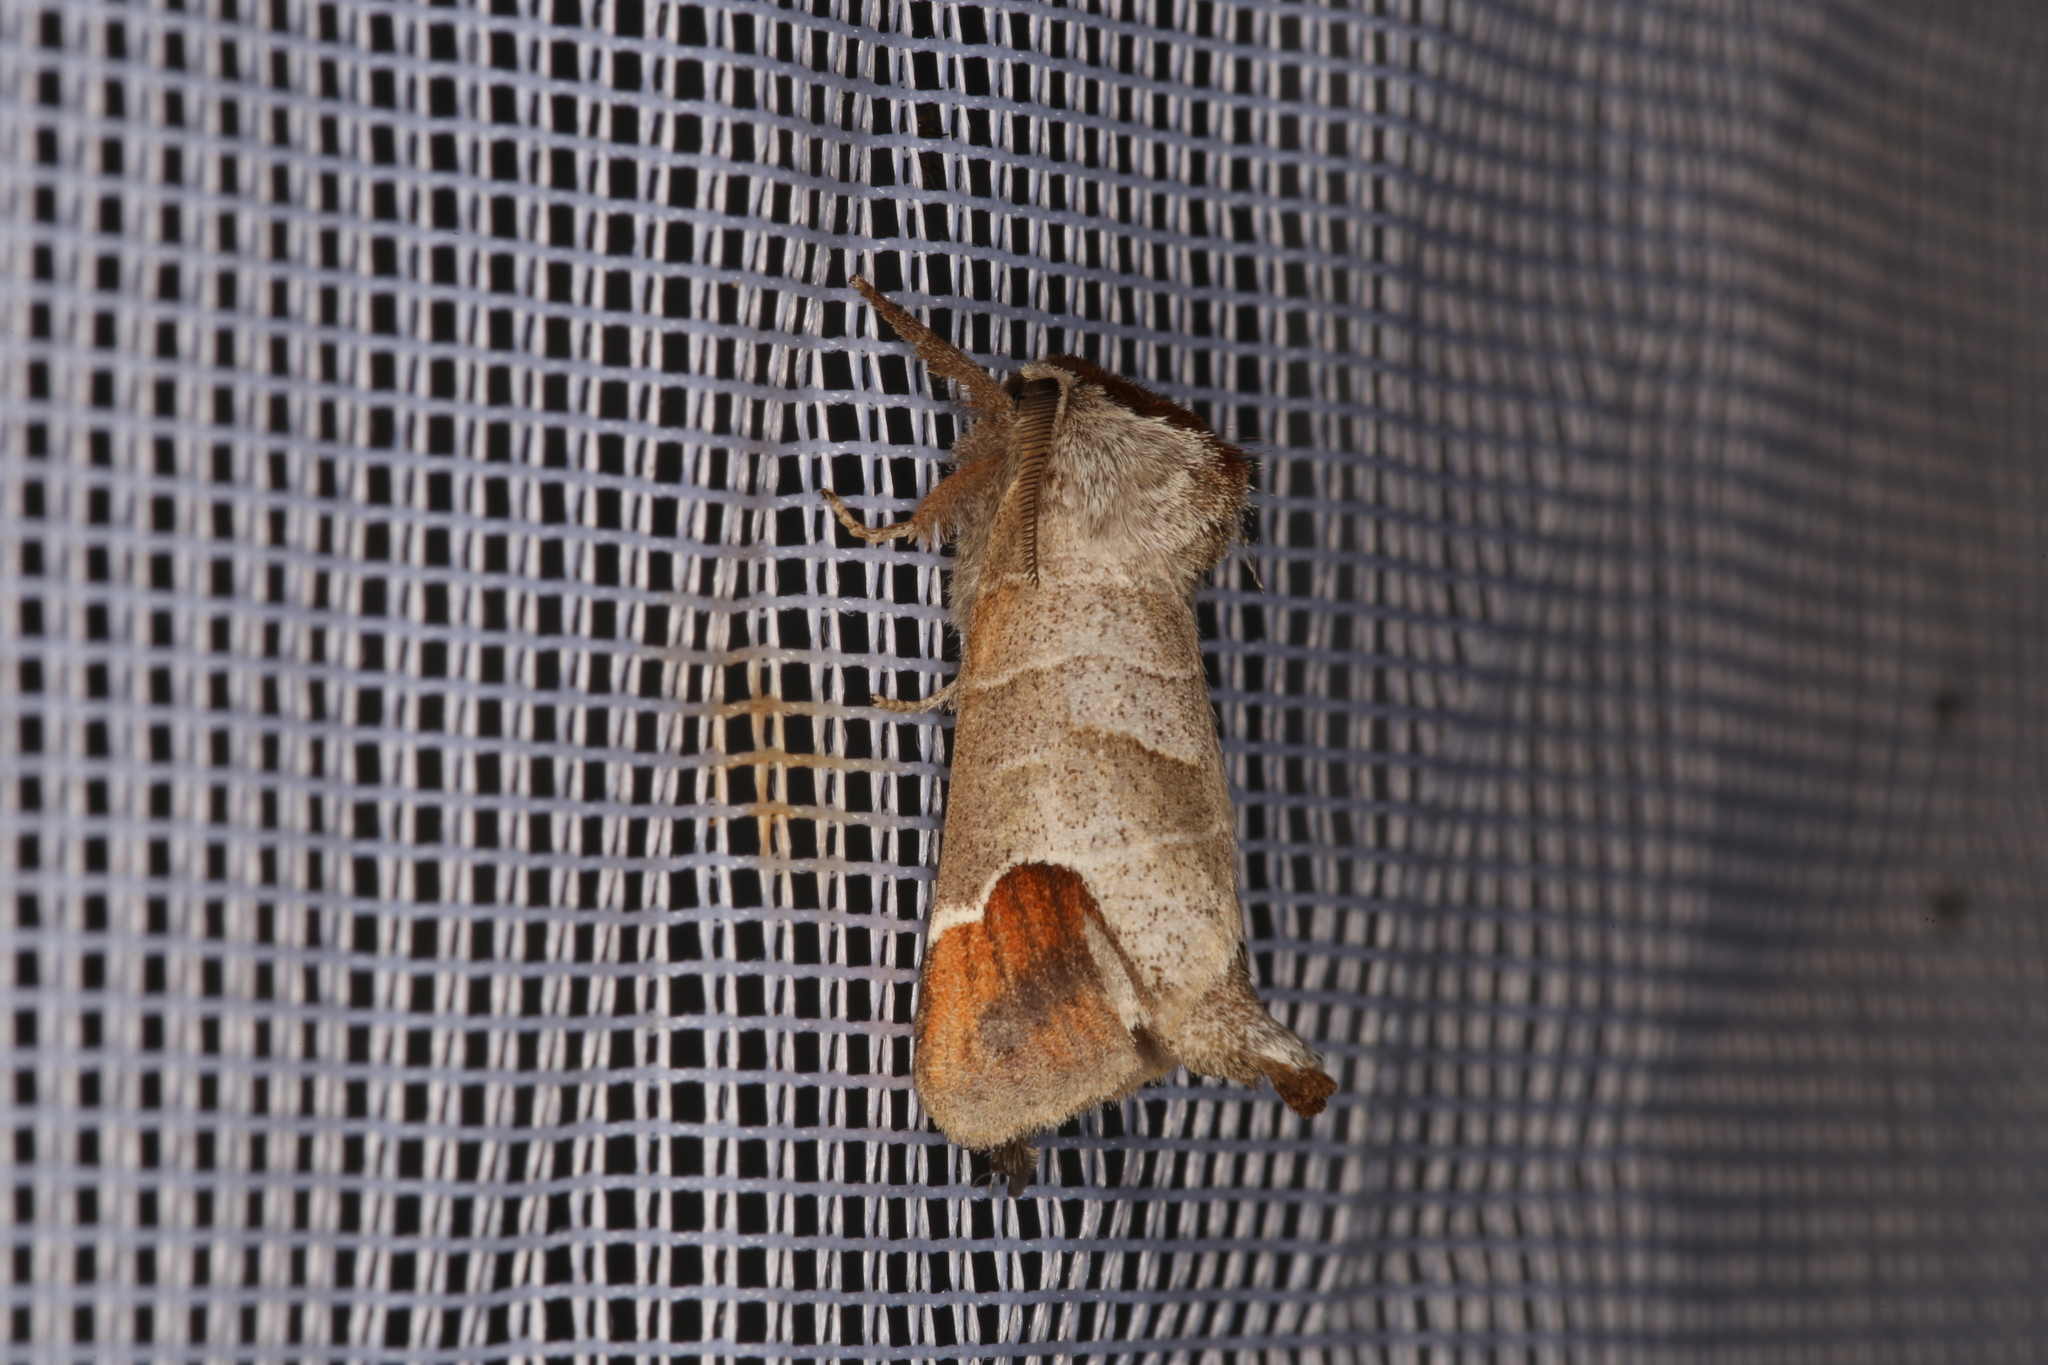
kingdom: Animalia
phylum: Arthropoda
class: Insecta
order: Lepidoptera
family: Notodontidae
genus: Clostera
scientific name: Clostera curtula
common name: Chocolate-tip
